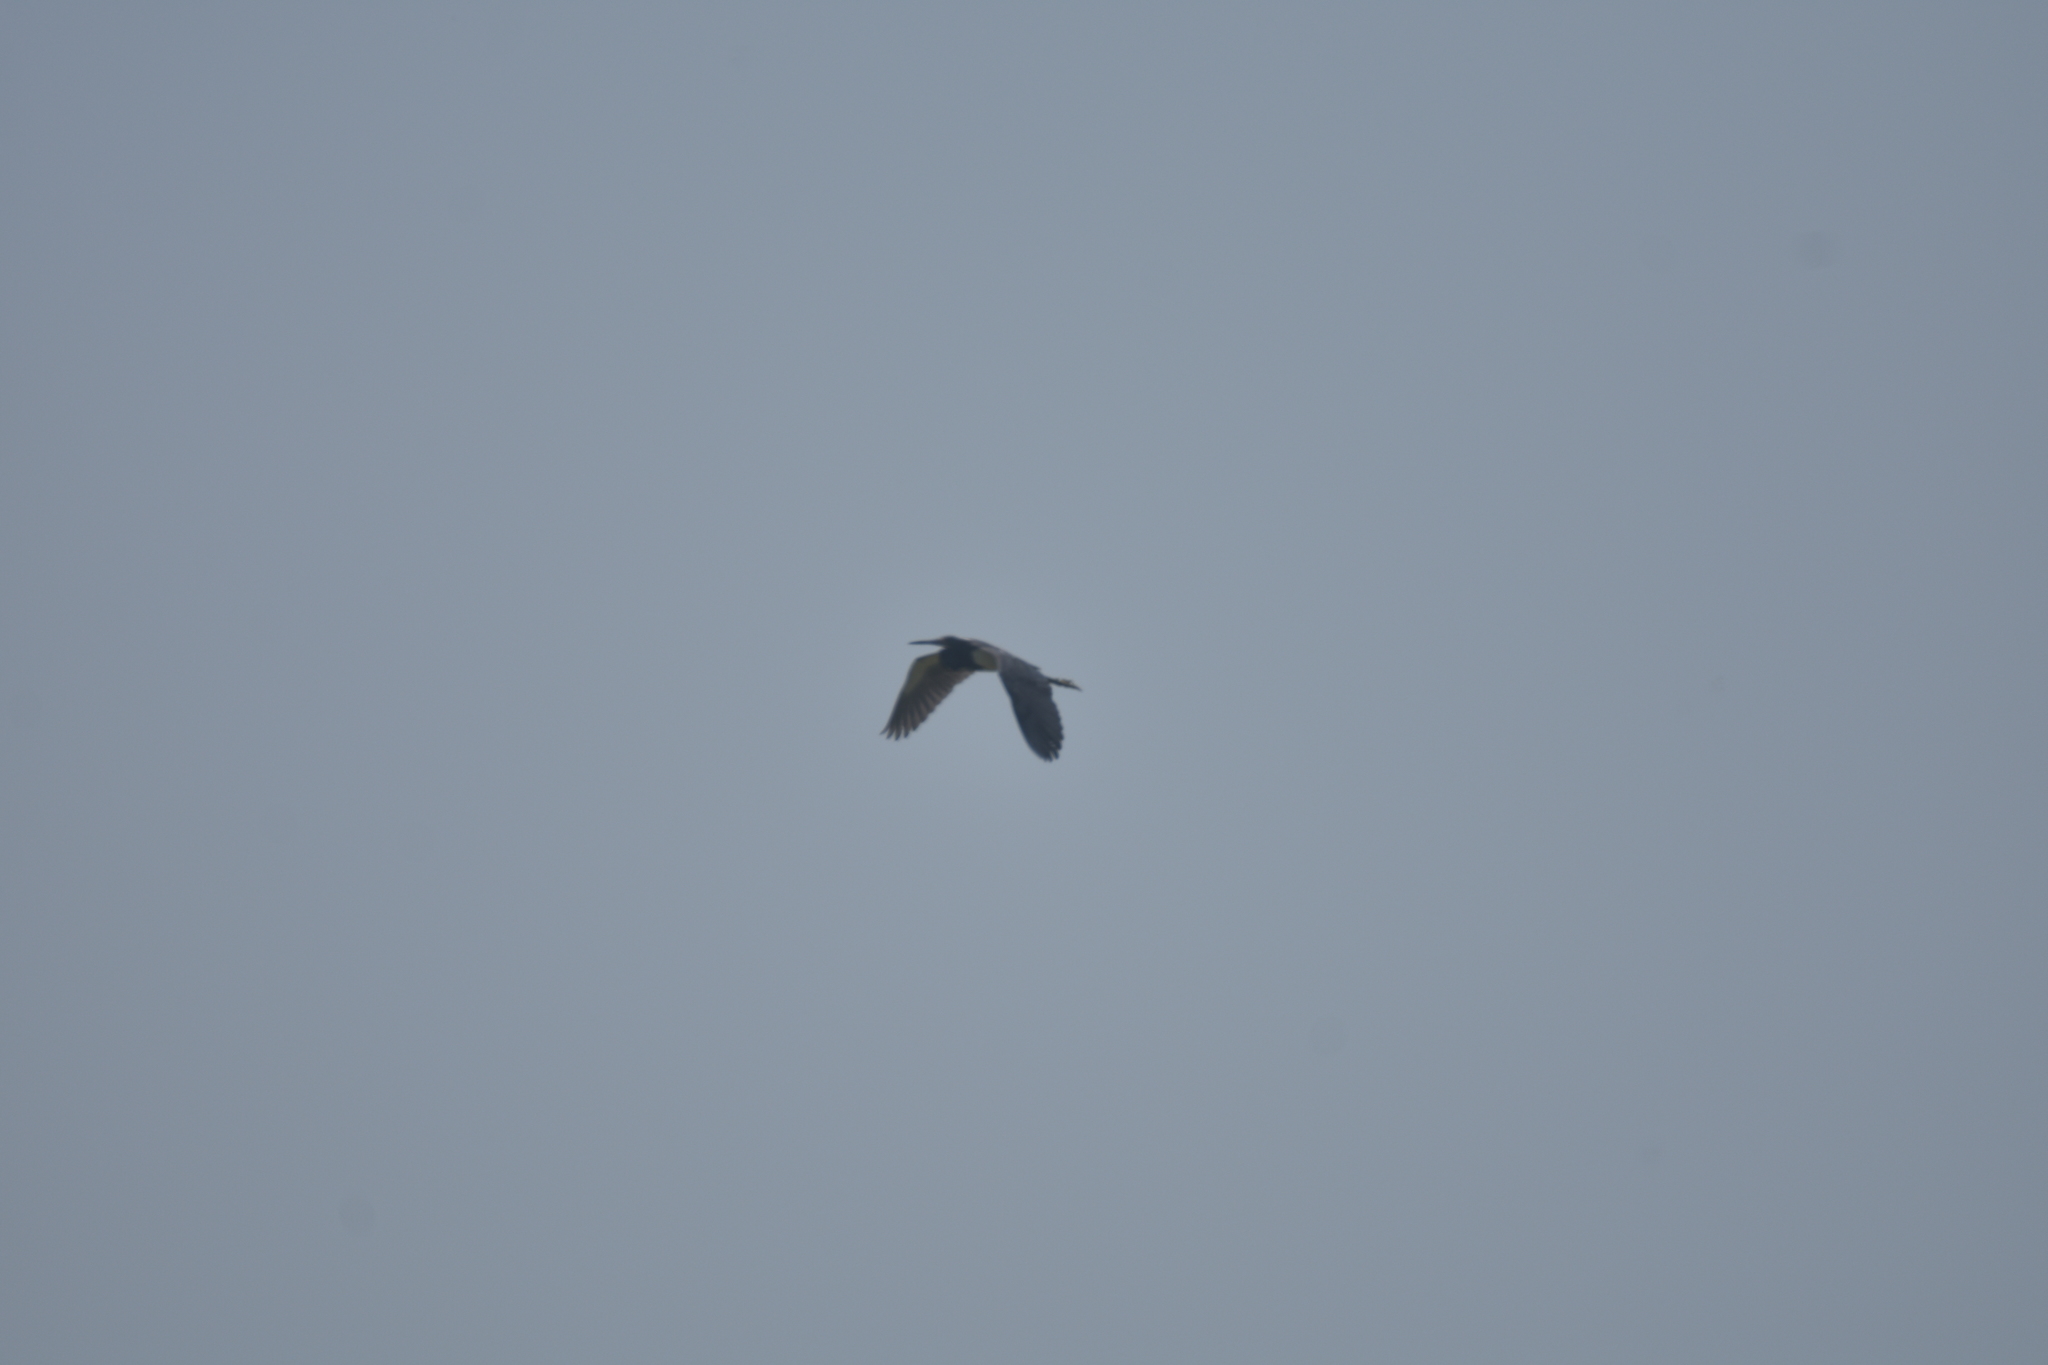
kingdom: Animalia
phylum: Chordata
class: Aves
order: Pelecaniformes
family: Ardeidae
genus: Ardea
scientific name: Ardea herodias
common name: Great blue heron
